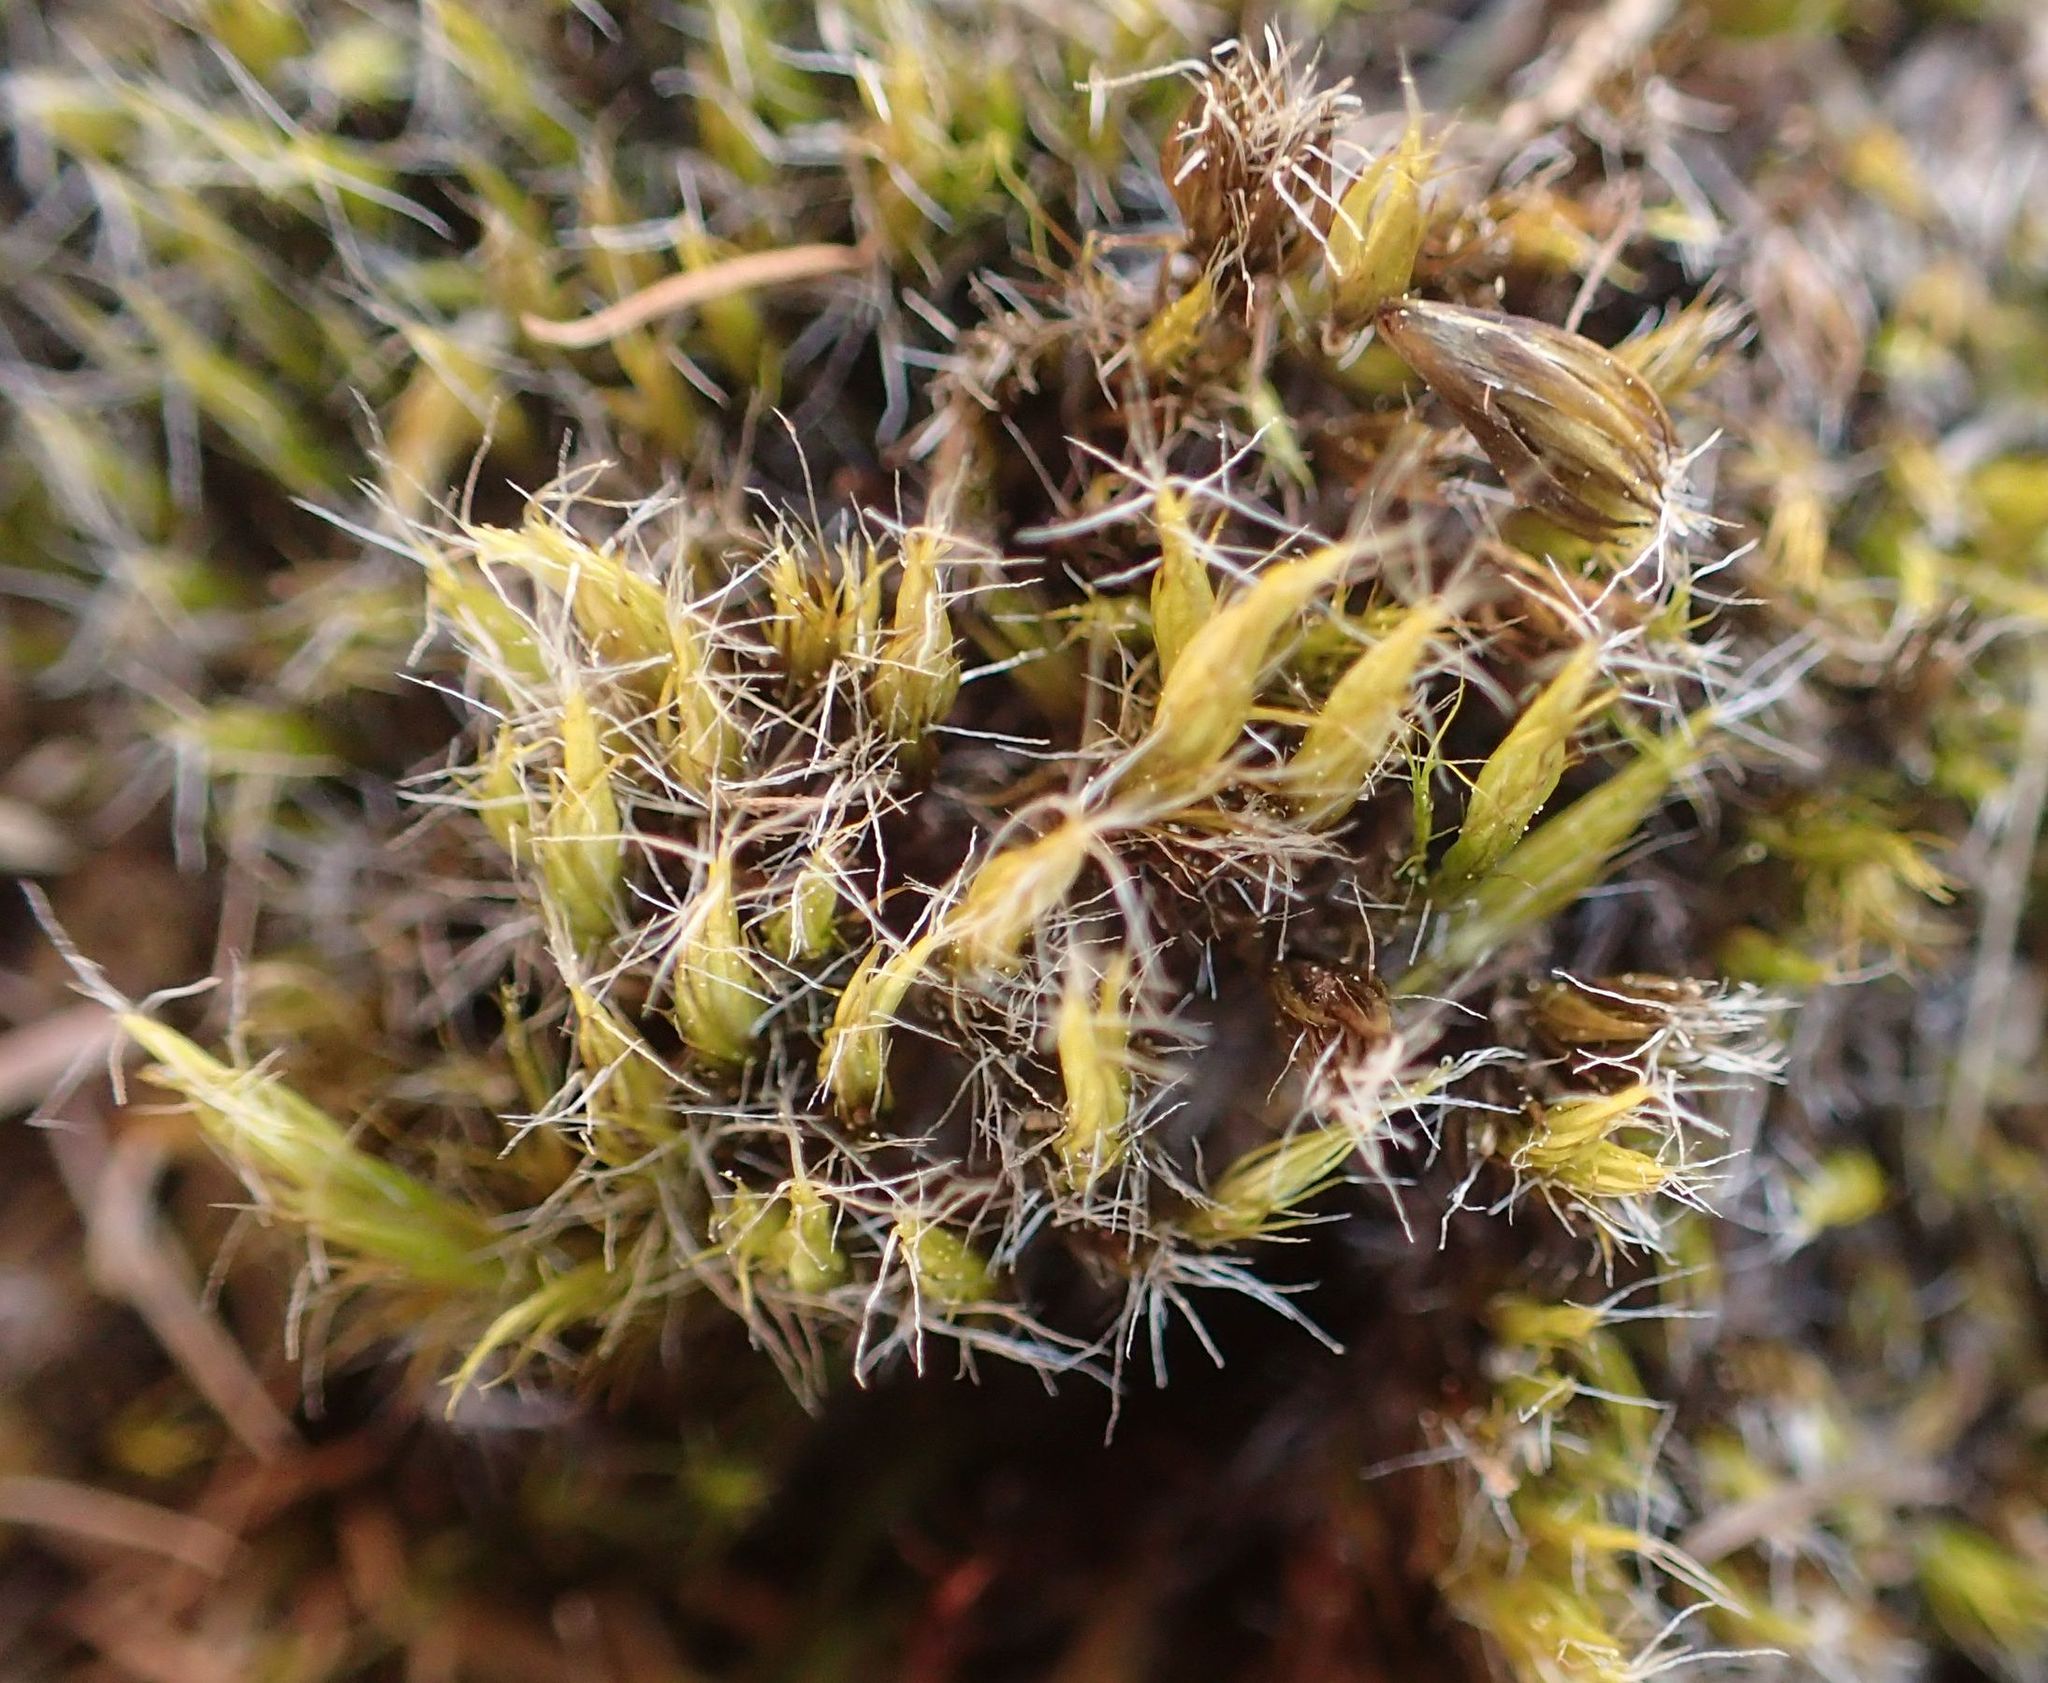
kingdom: Plantae
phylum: Bryophyta
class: Bryopsida
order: Dicranales
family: Leucobryaceae
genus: Campylopus
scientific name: Campylopus introflexus
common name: Heath star moss
